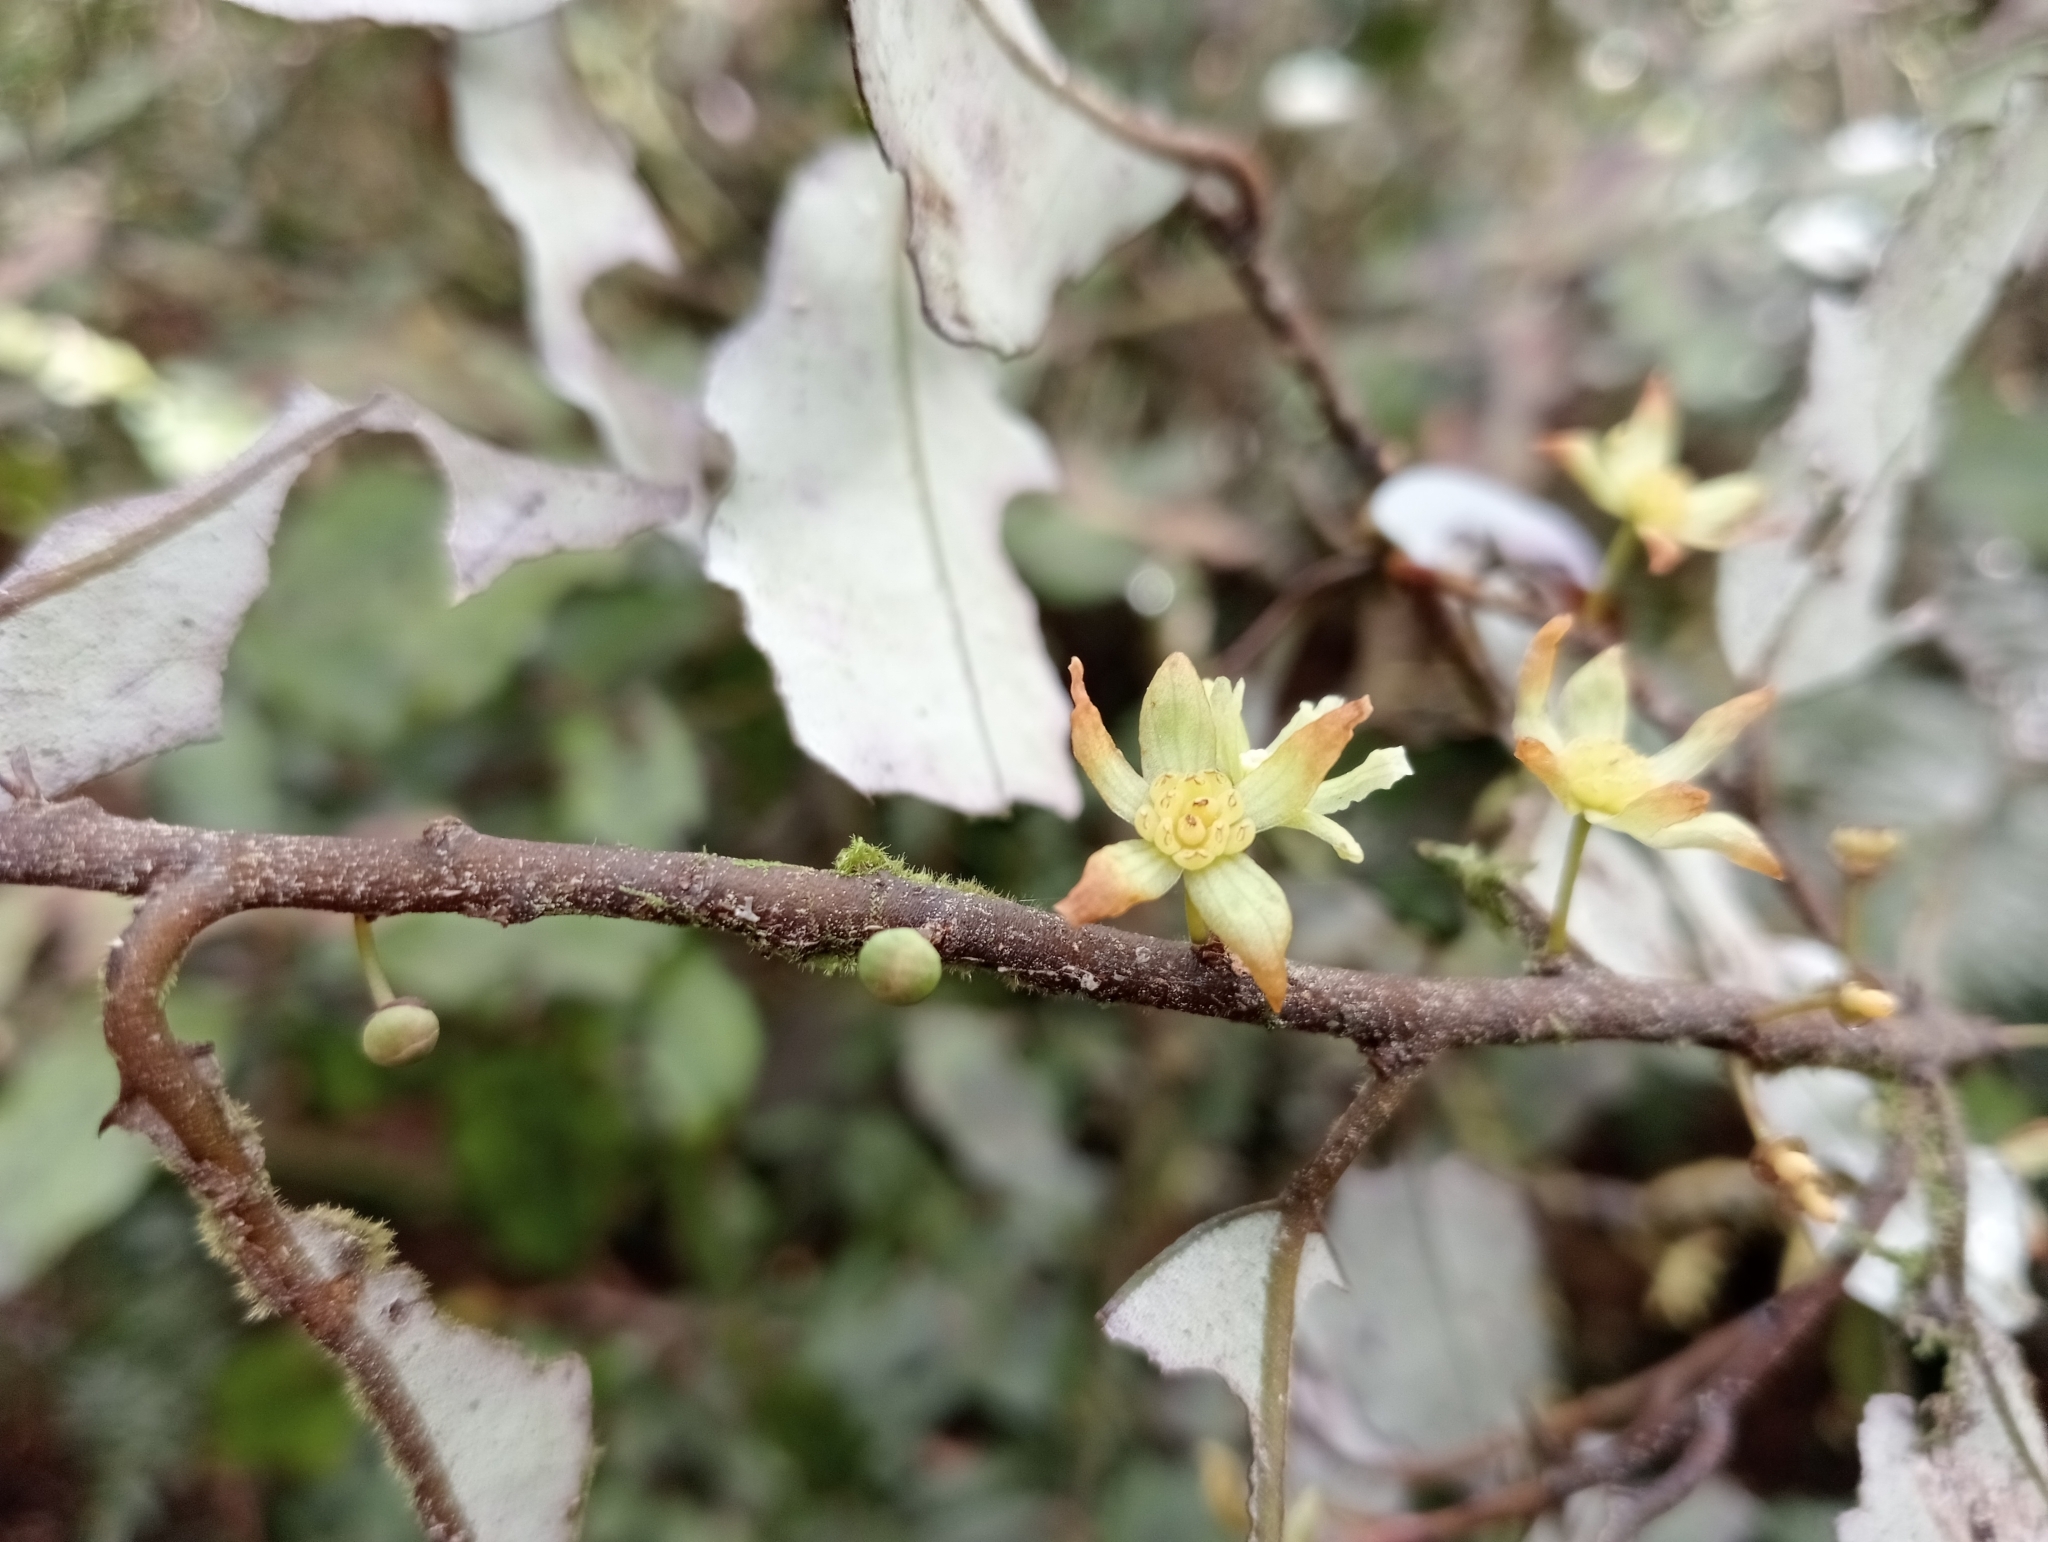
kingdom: Plantae
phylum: Tracheophyta
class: Magnoliopsida
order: Canellales
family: Winteraceae
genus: Pseudowintera
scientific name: Pseudowintera colorata
